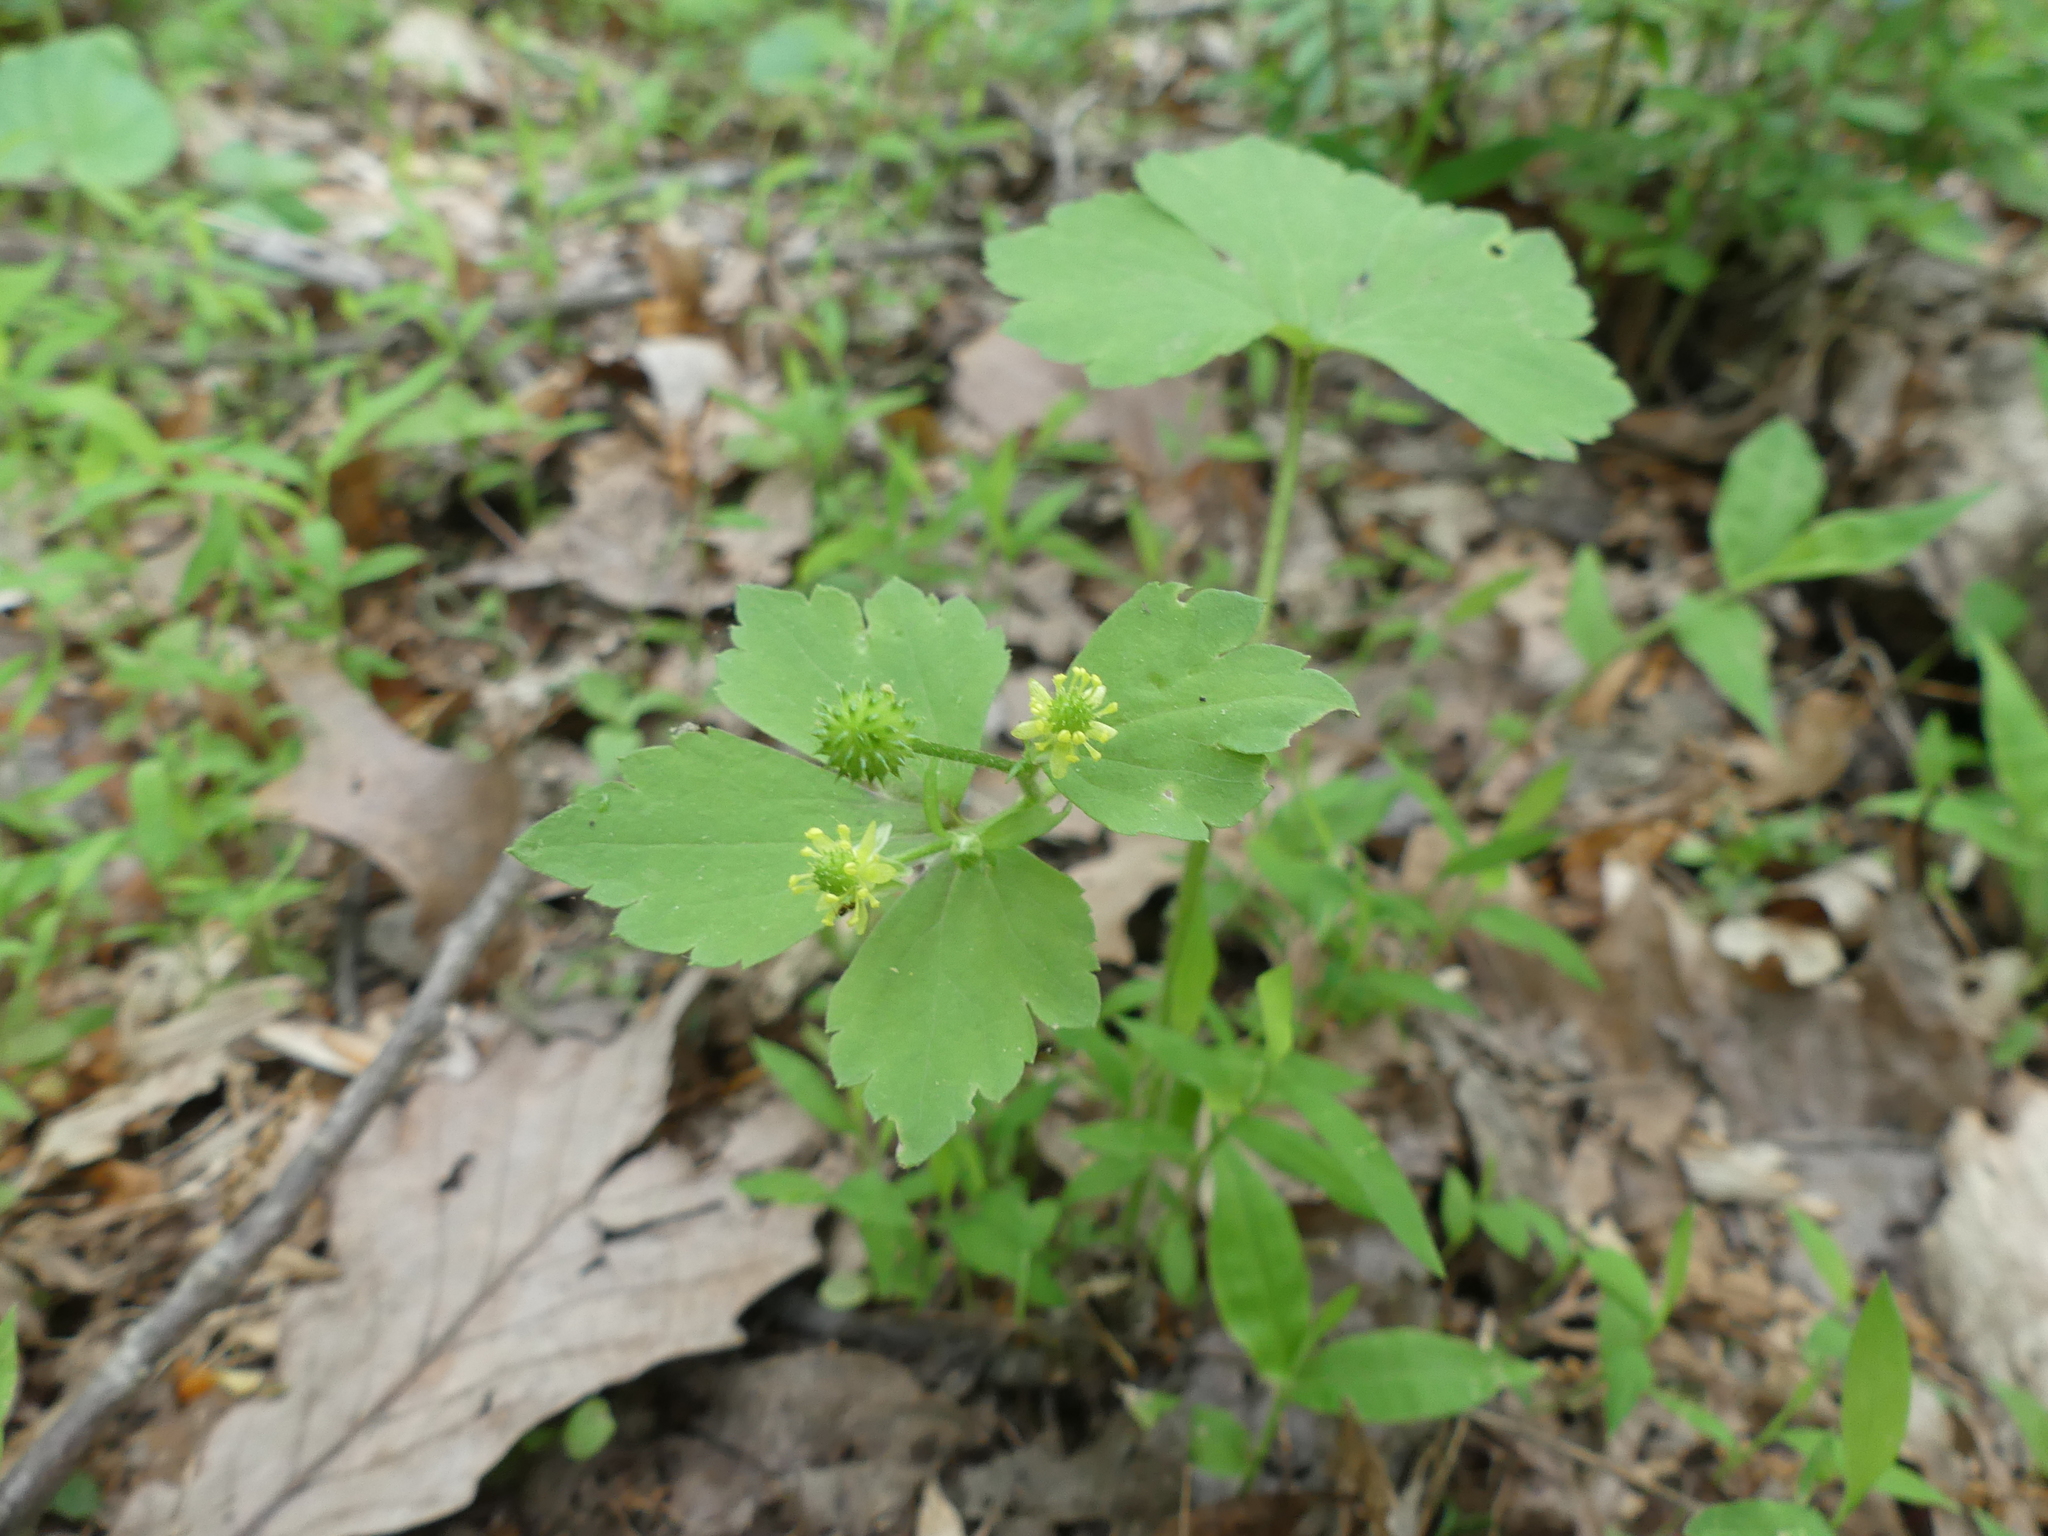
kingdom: Plantae
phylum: Tracheophyta
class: Magnoliopsida
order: Ranunculales
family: Ranunculaceae
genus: Ranunculus
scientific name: Ranunculus recurvatus
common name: Blisterwort
